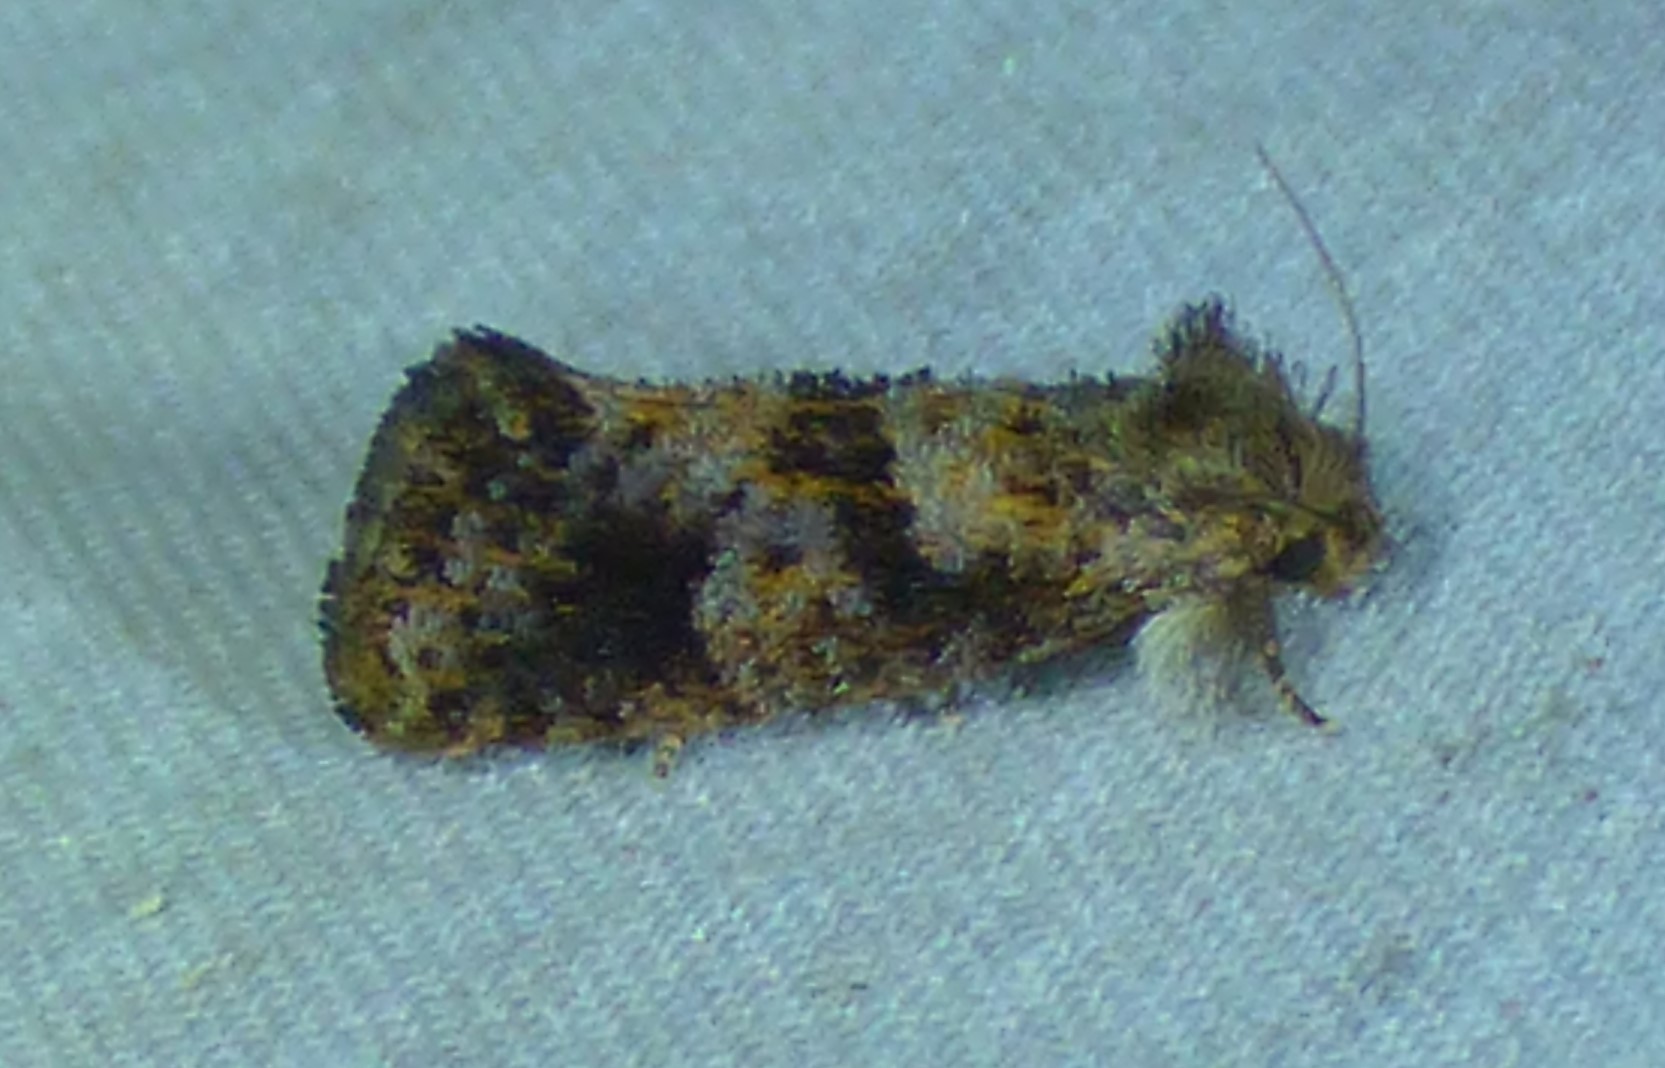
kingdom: Animalia
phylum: Arthropoda
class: Insecta
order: Lepidoptera
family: Tineidae
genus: Acrolophus
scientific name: Acrolophus panamae
